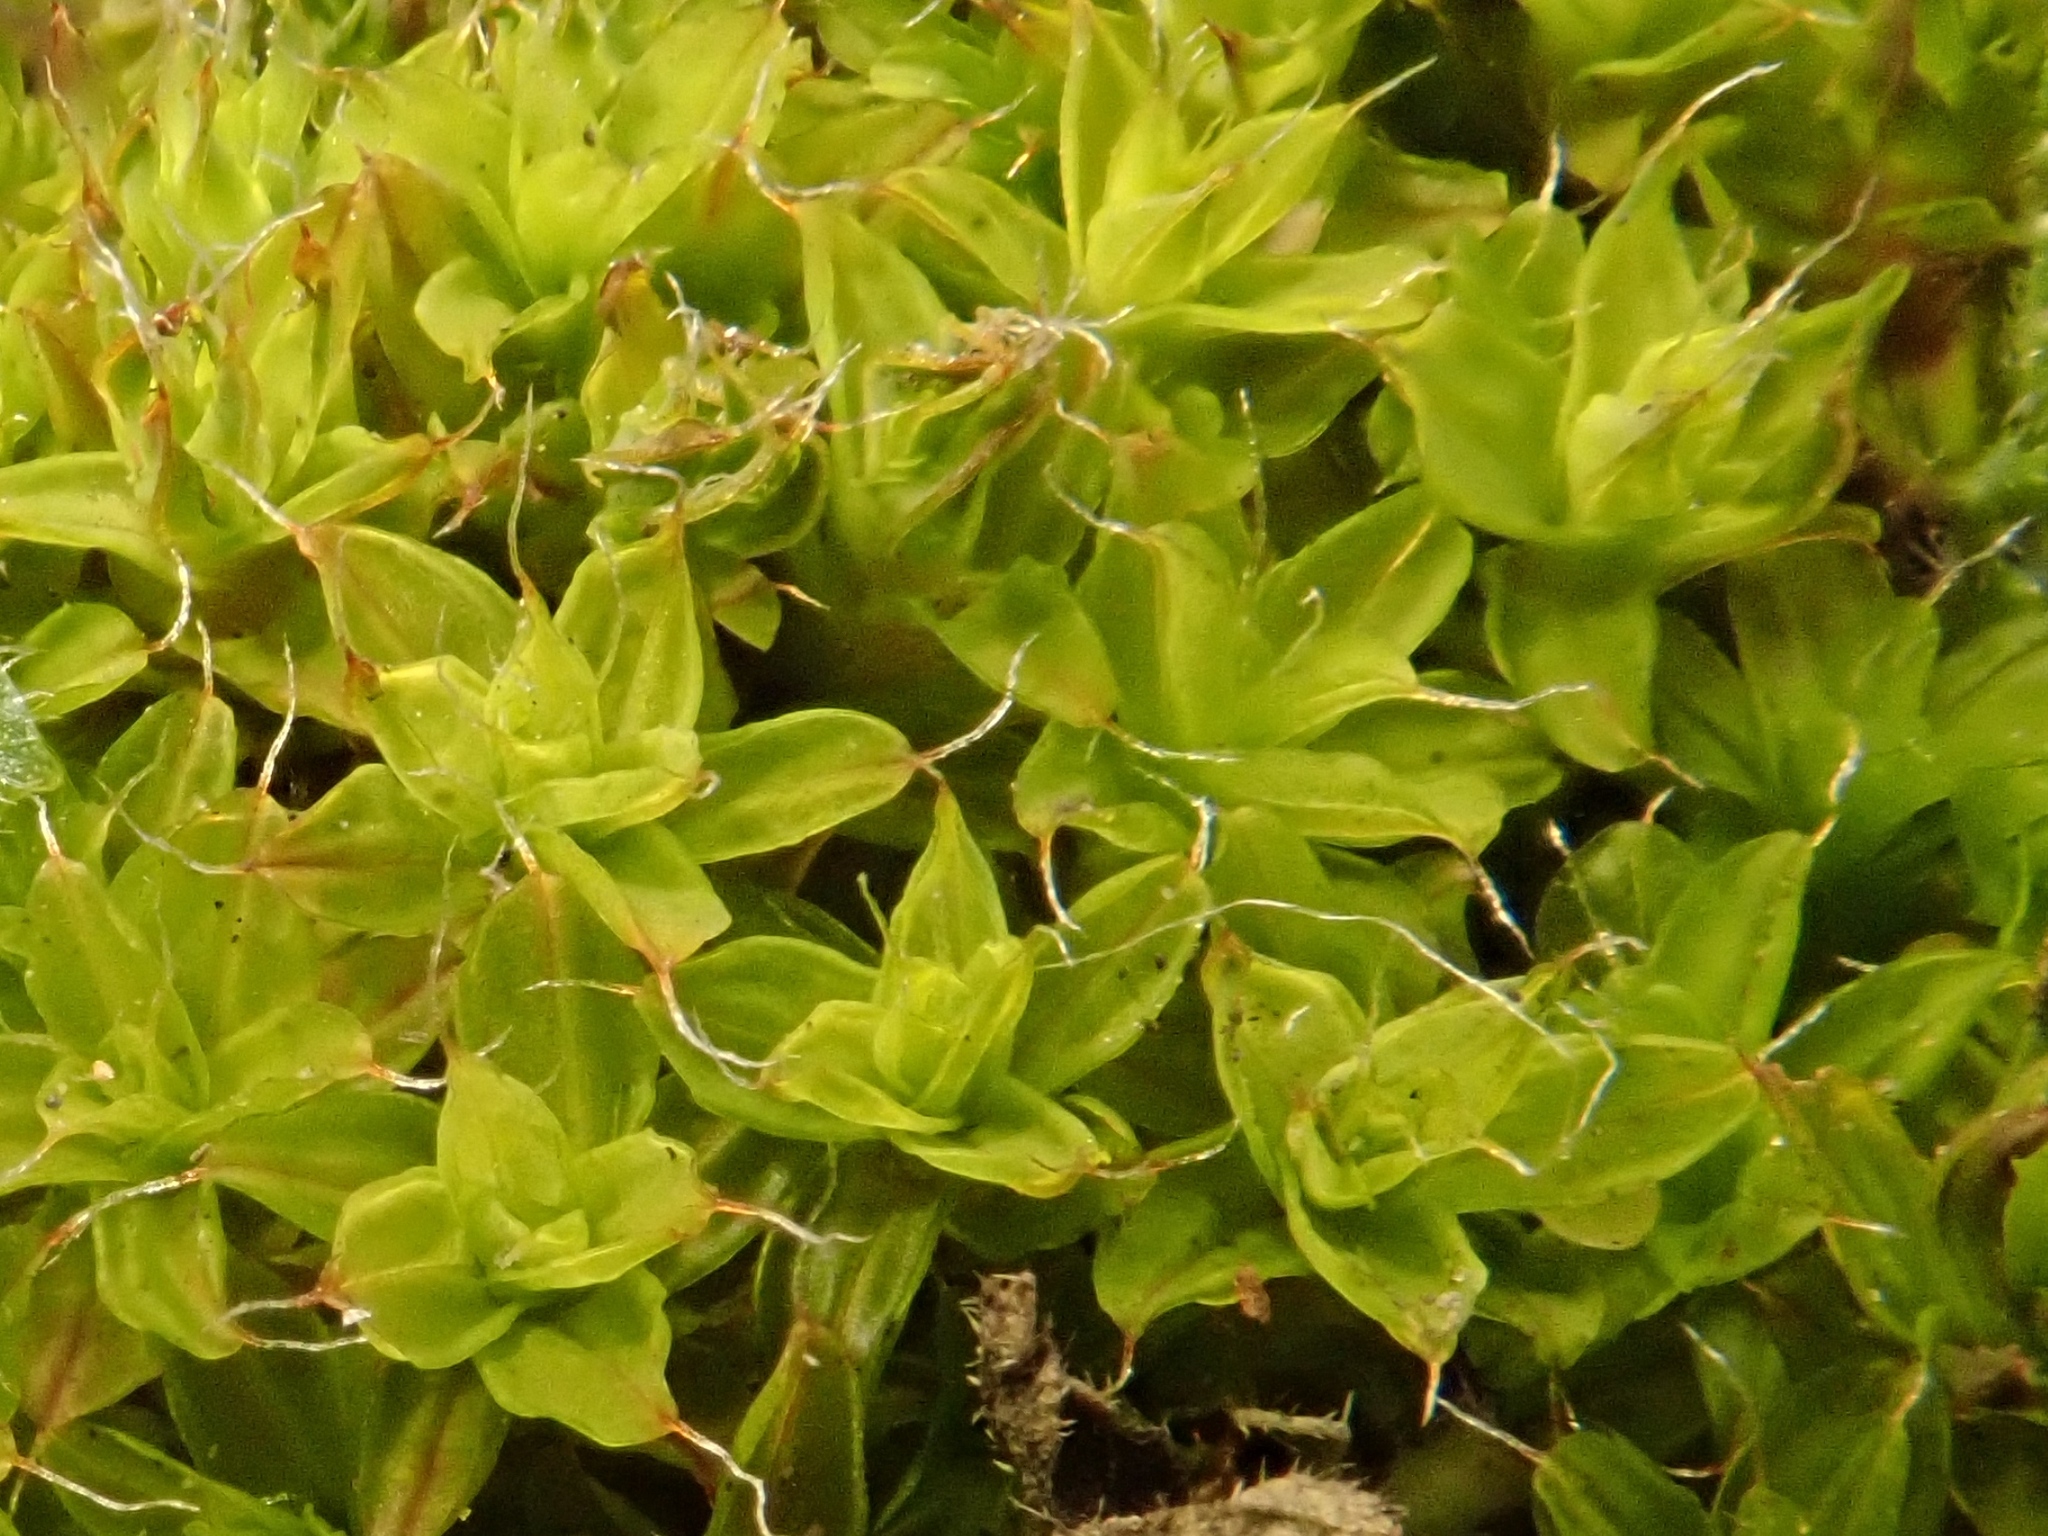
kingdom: Plantae
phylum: Bryophyta
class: Bryopsida
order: Pottiales
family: Pottiaceae
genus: Syntrichia
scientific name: Syntrichia ruralis
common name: Sidewalk screw moss
